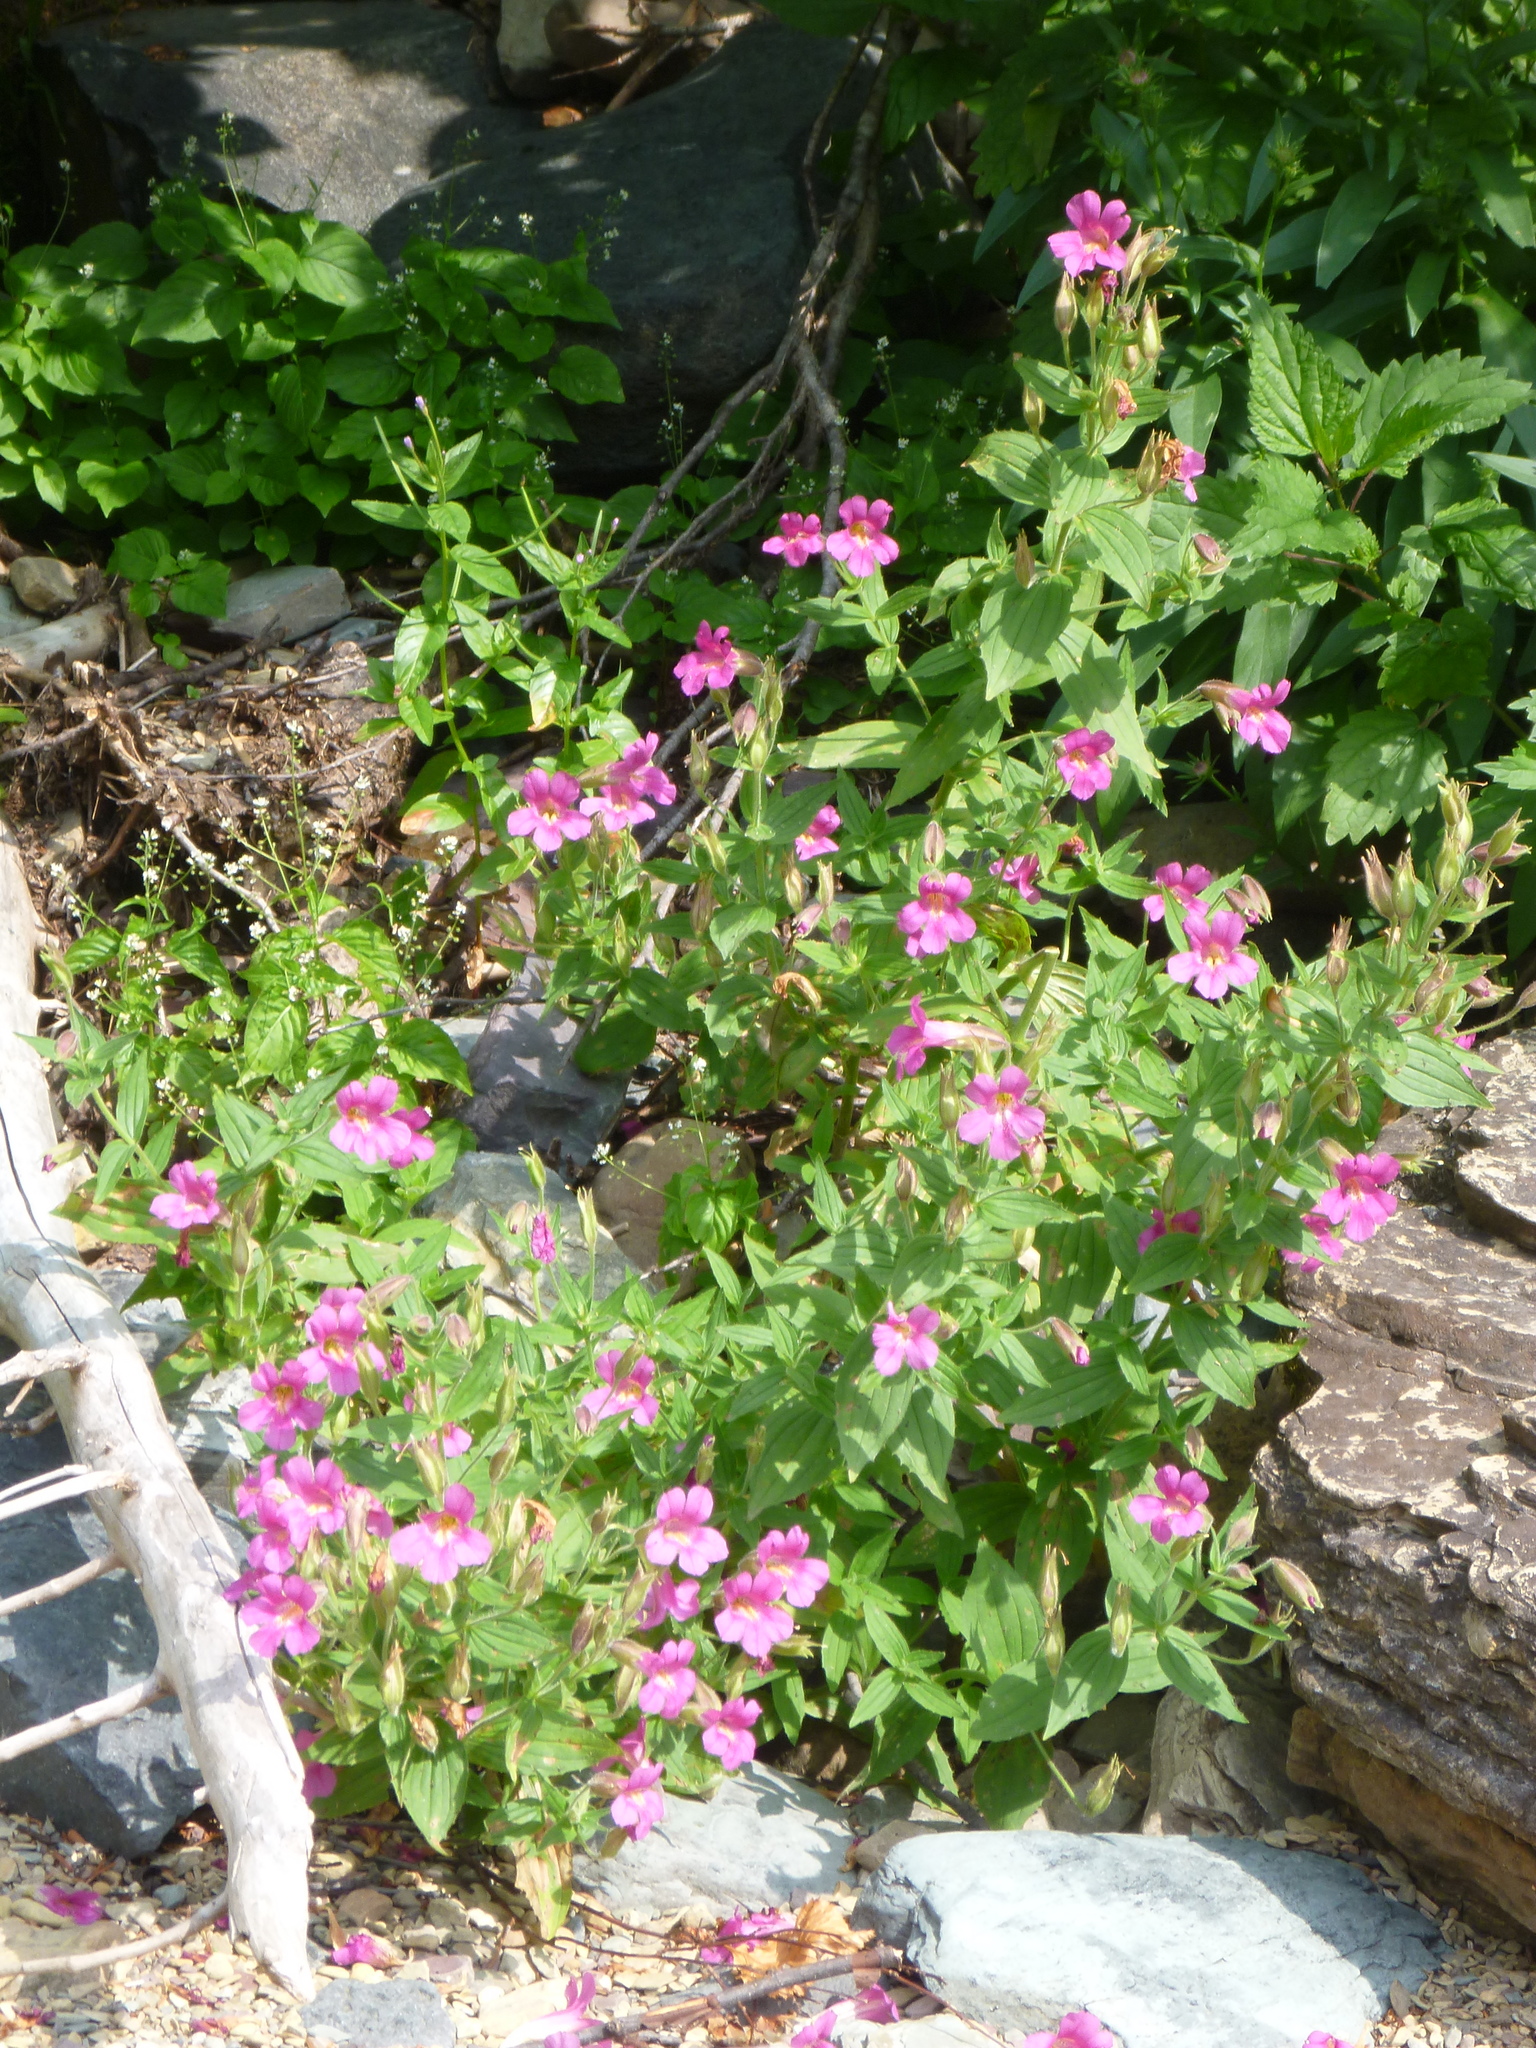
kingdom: Plantae
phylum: Tracheophyta
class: Magnoliopsida
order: Lamiales
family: Phrymaceae
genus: Erythranthe
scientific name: Erythranthe lewisii
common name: Lewis's monkey-flower
